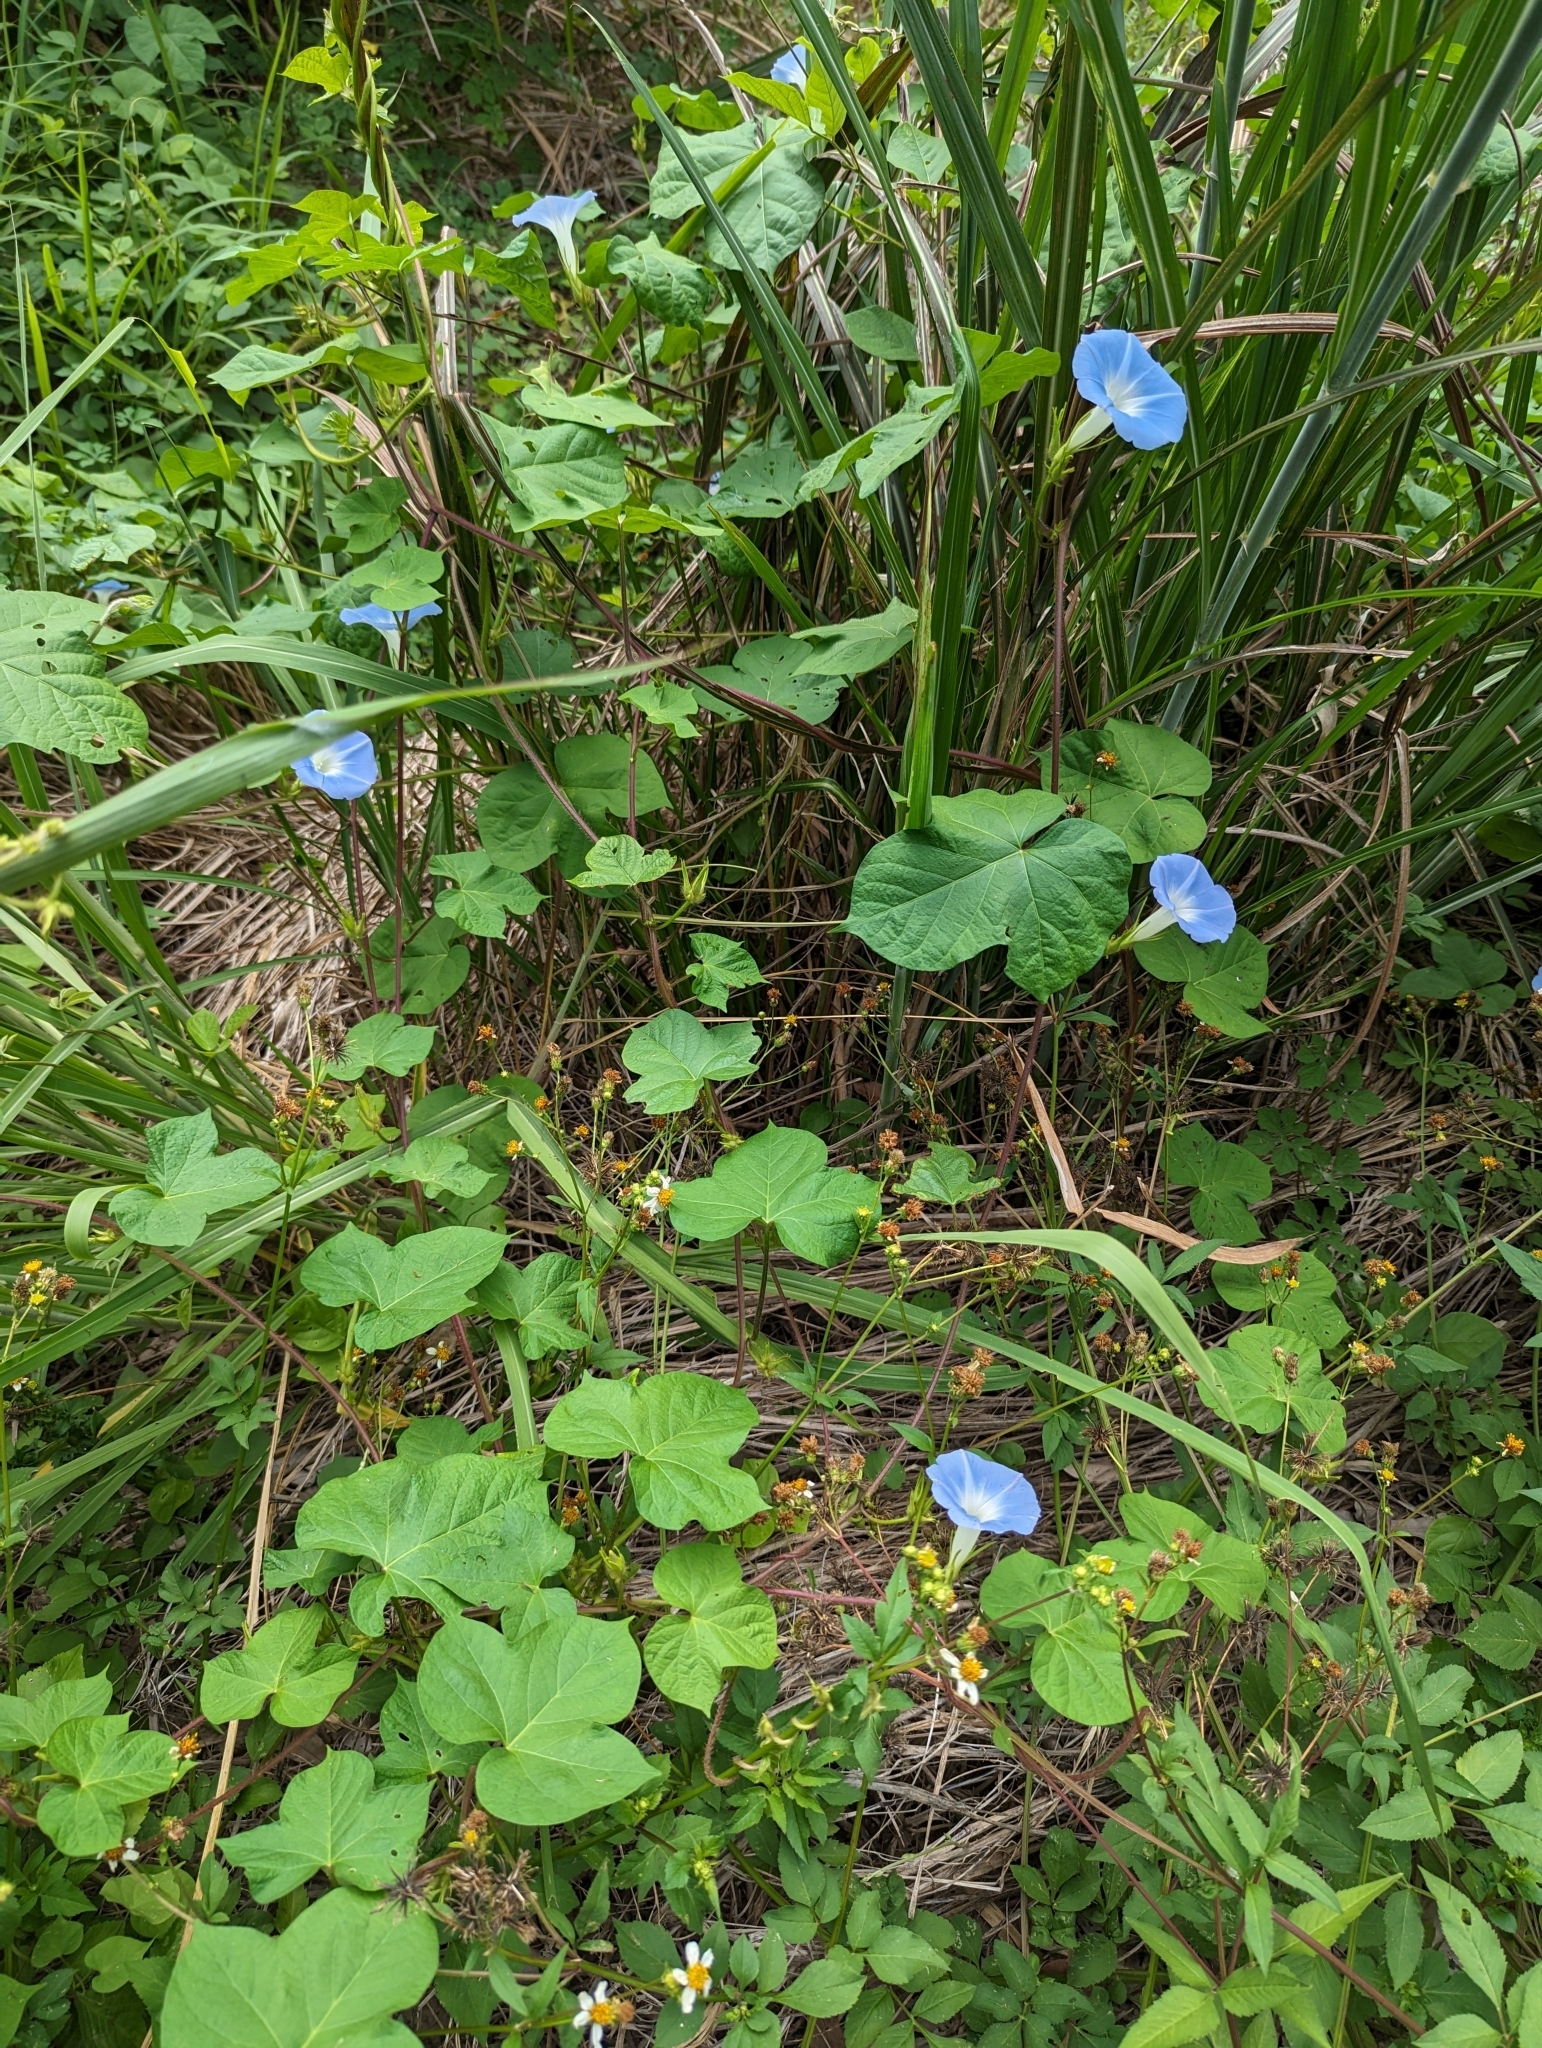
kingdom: Plantae
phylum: Tracheophyta
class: Magnoliopsida
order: Solanales
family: Convolvulaceae
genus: Ipomoea
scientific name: Ipomoea nil
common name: Japanese morning-glory
